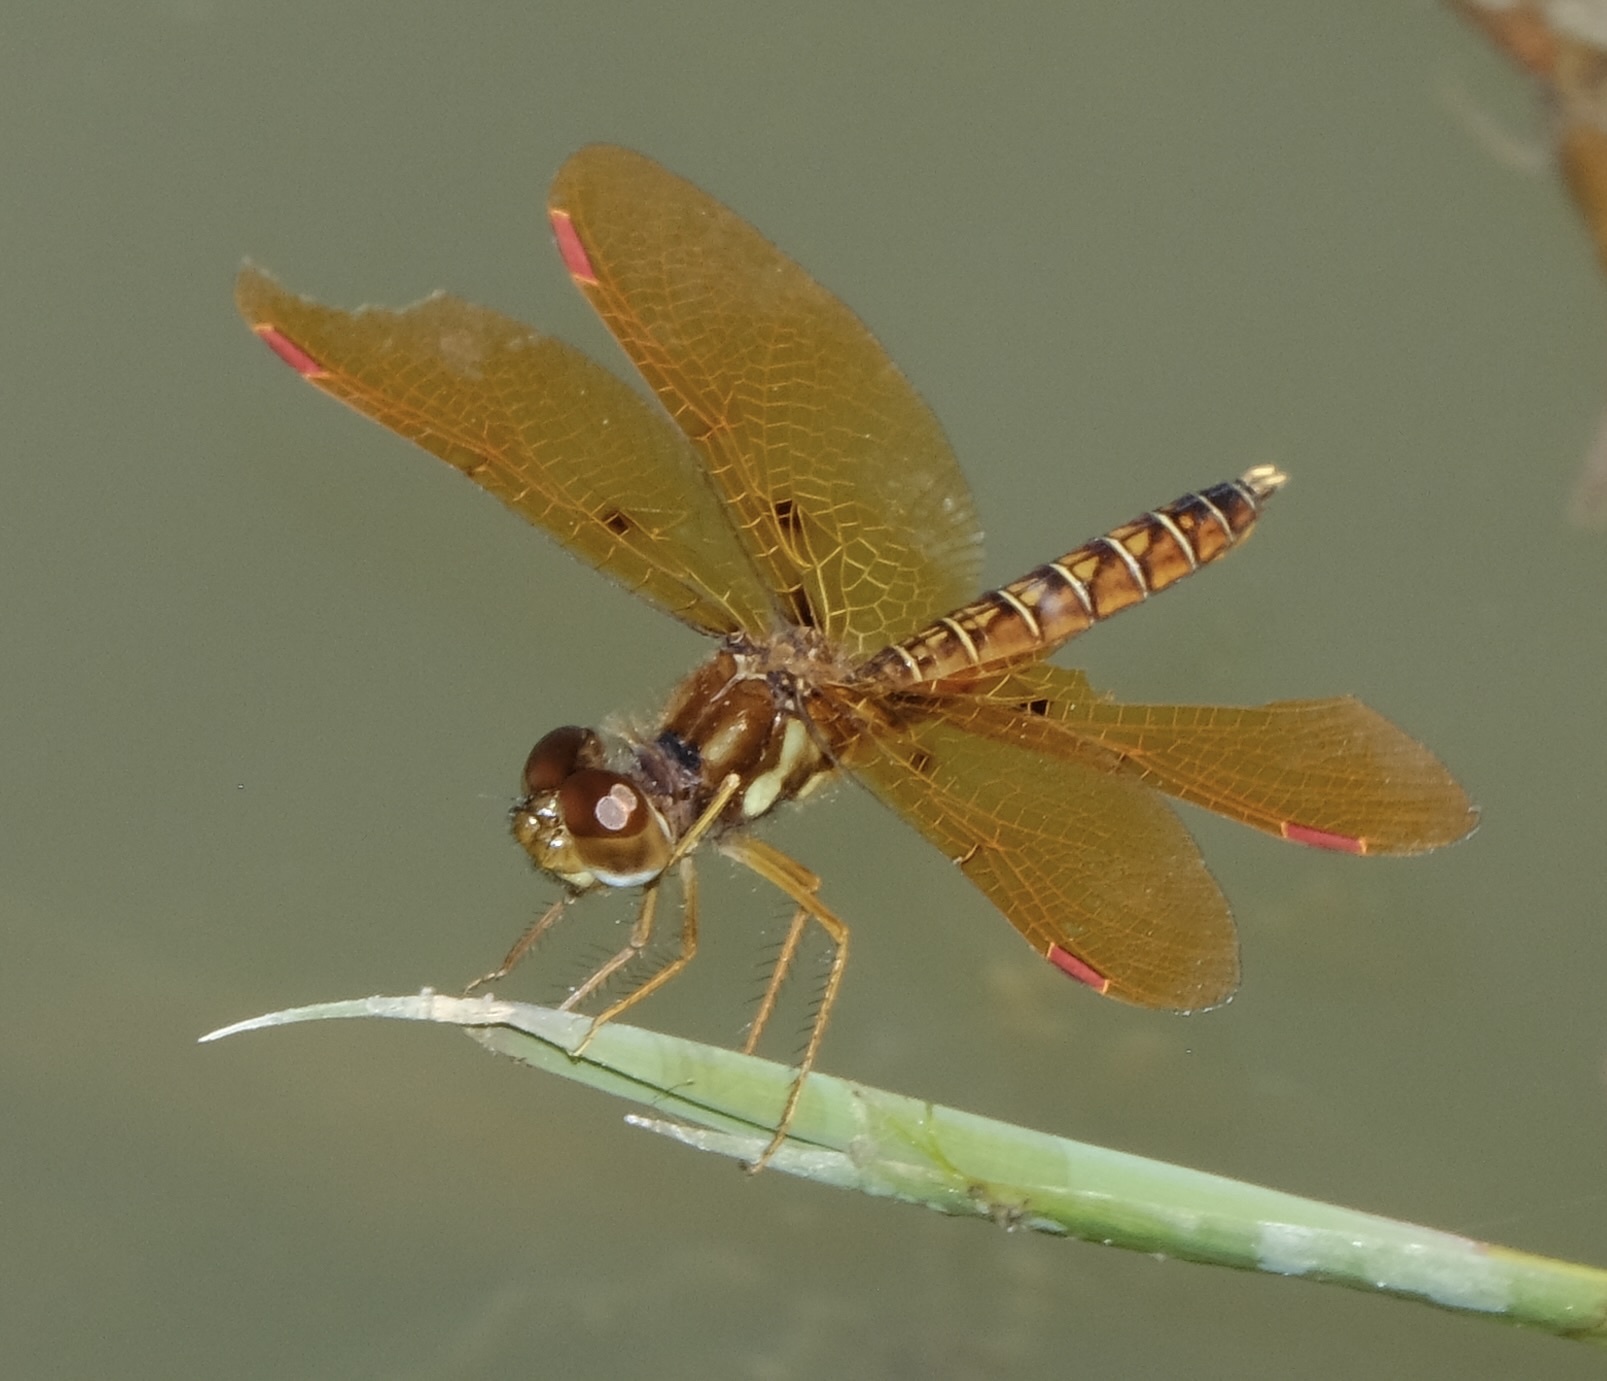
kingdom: Animalia
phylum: Arthropoda
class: Insecta
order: Odonata
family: Libellulidae
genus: Perithemis
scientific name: Perithemis tenera
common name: Eastern amberwing
